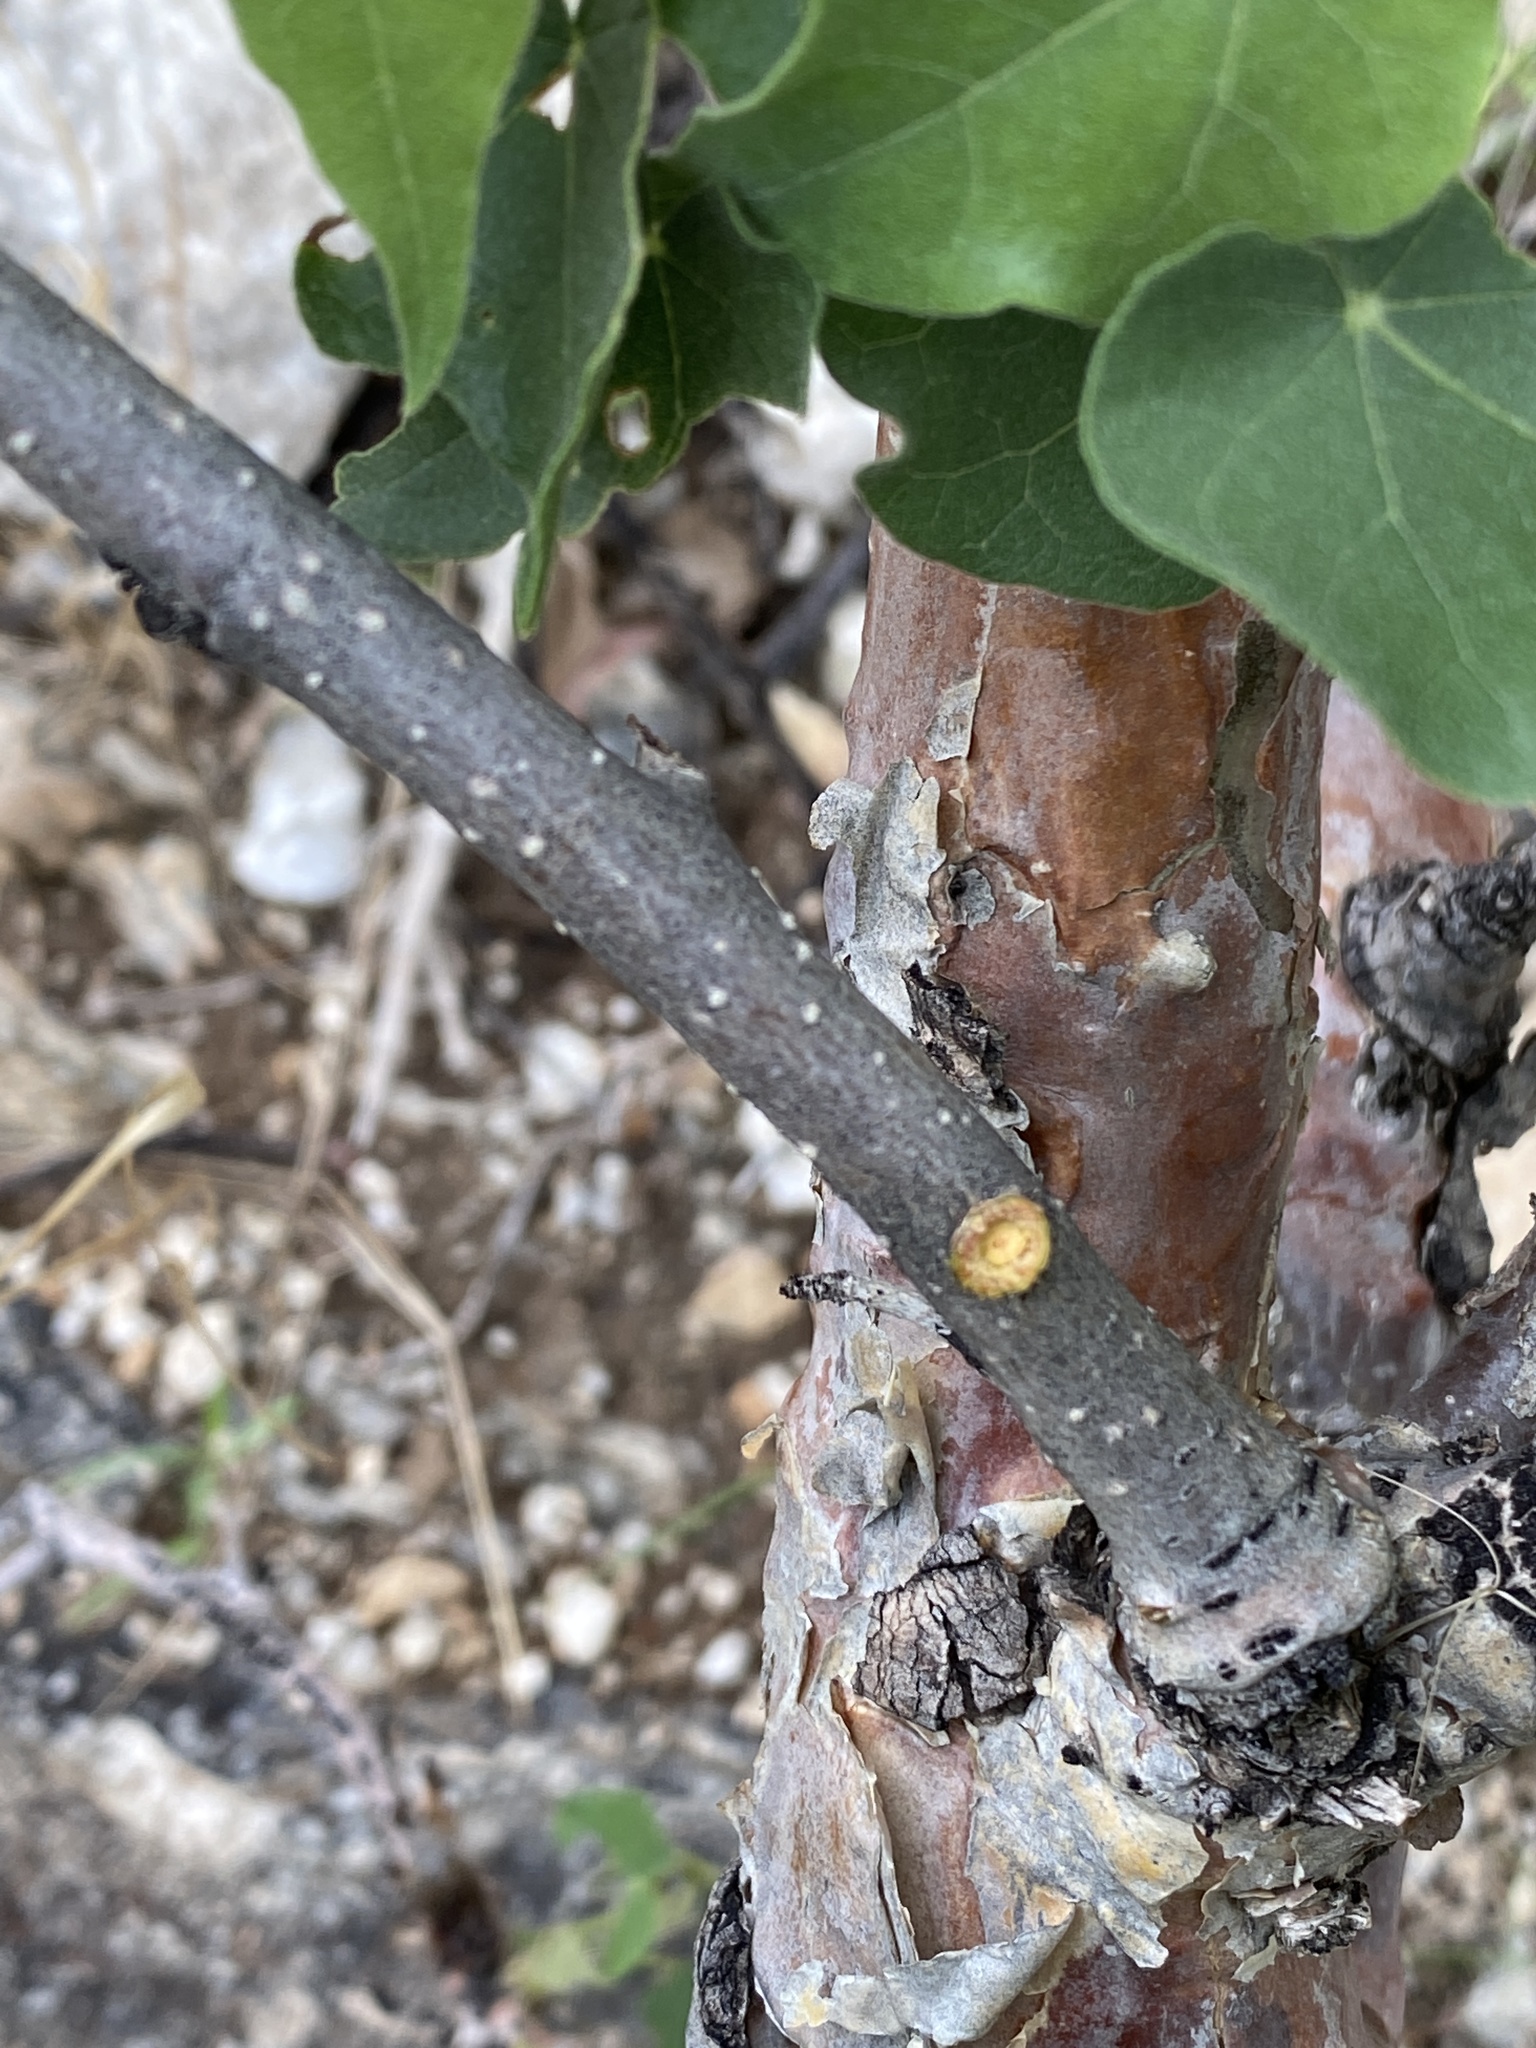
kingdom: Plantae
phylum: Tracheophyta
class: Magnoliopsida
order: Malvales
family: Malvaceae
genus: Sterculia
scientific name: Sterculia africana
